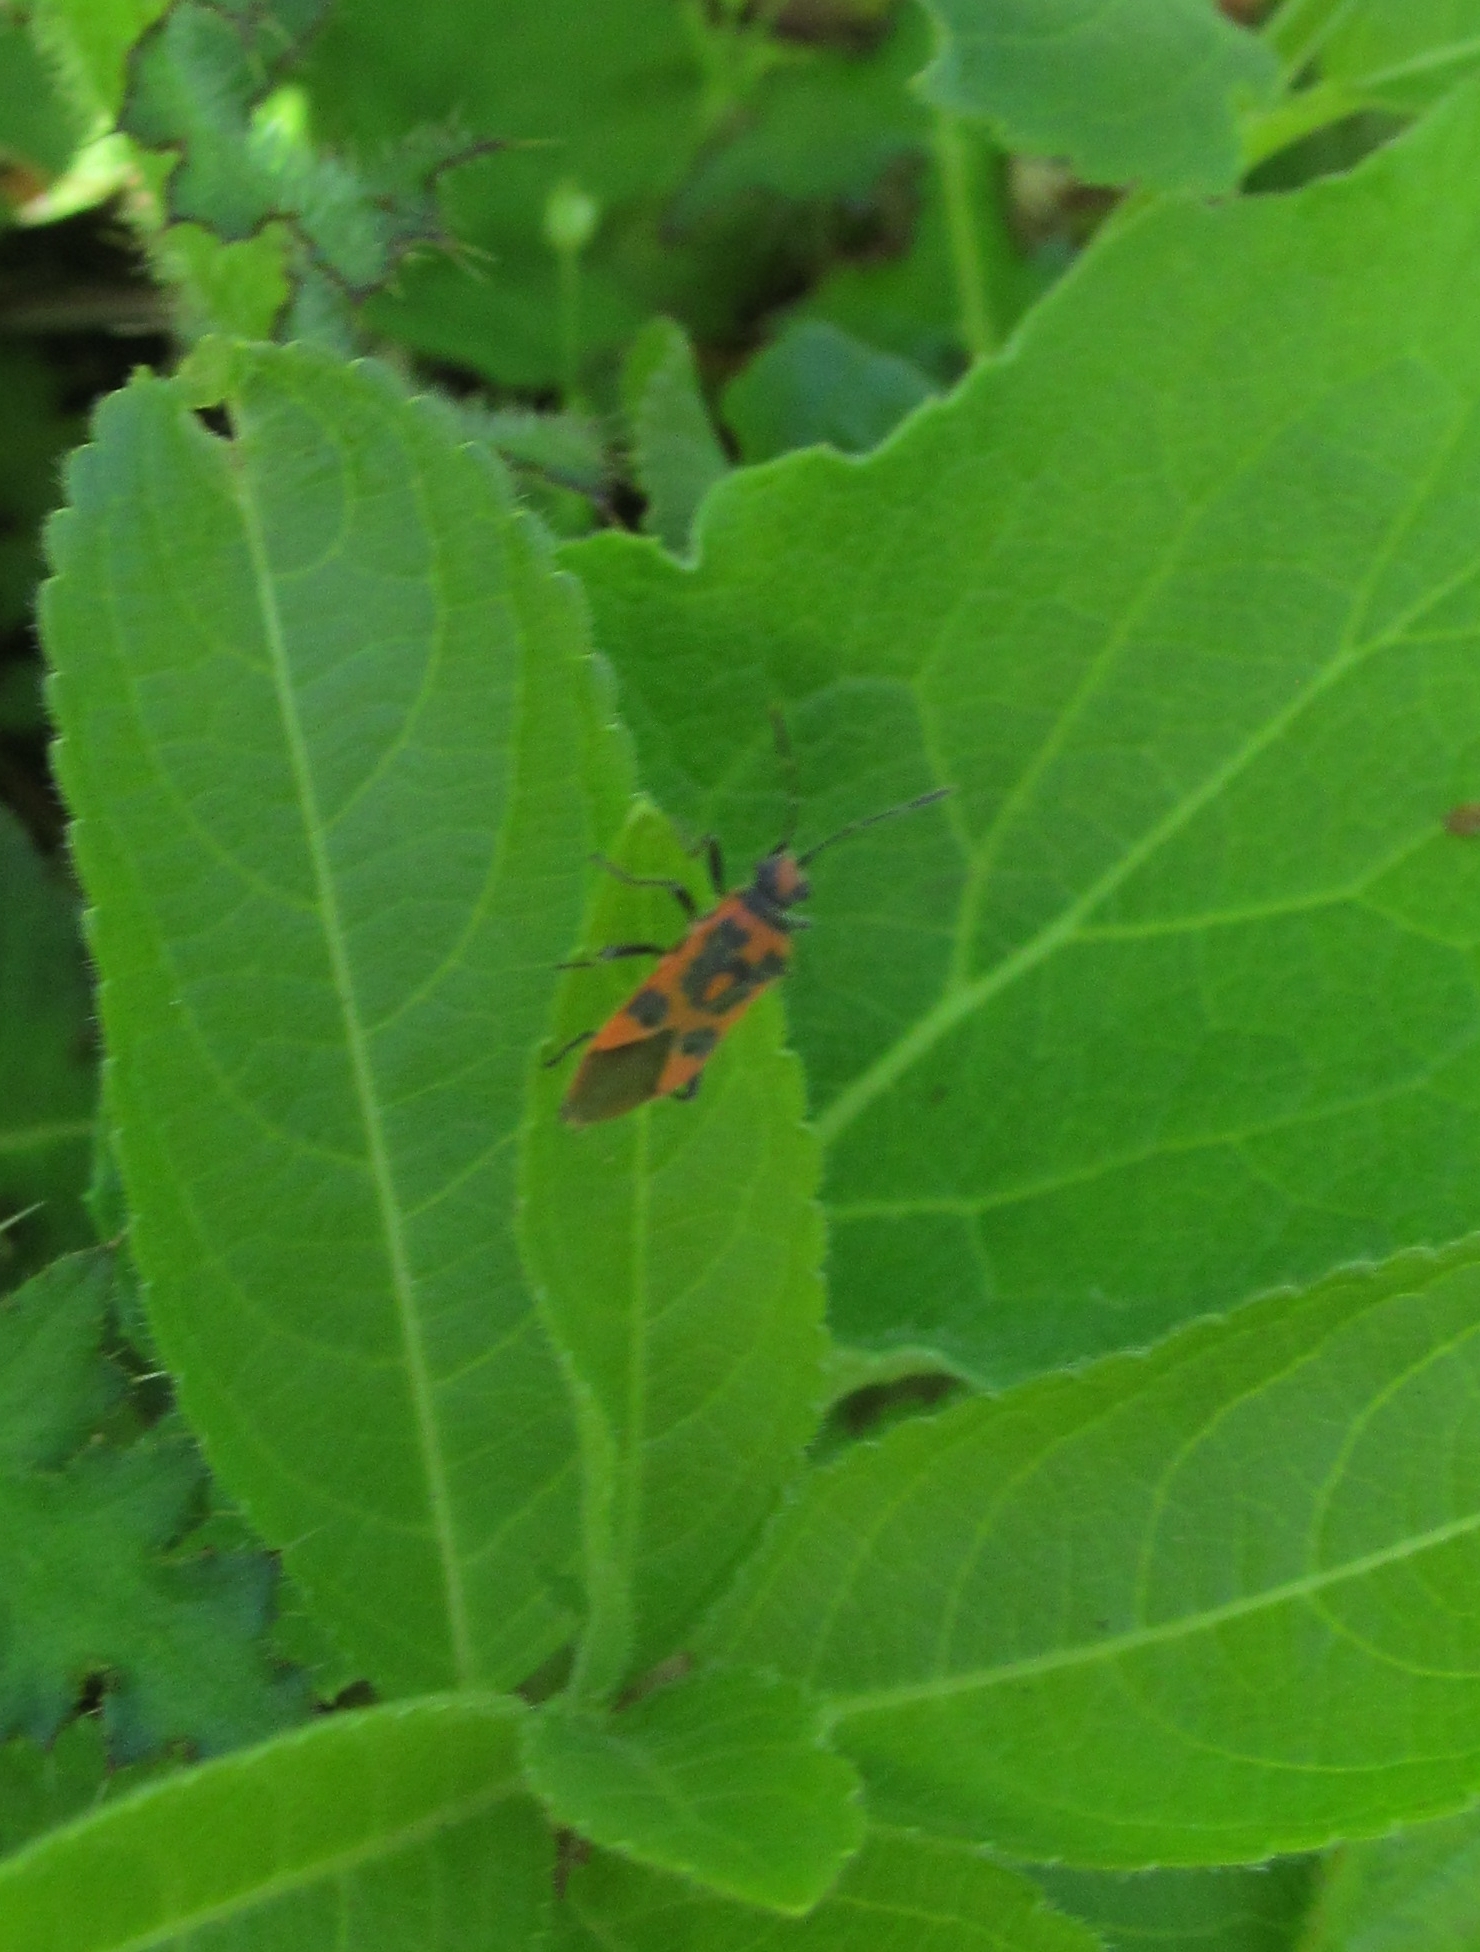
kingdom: Animalia
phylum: Arthropoda
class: Insecta
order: Hemiptera
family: Rhopalidae
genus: Corizus
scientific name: Corizus hyoscyami
